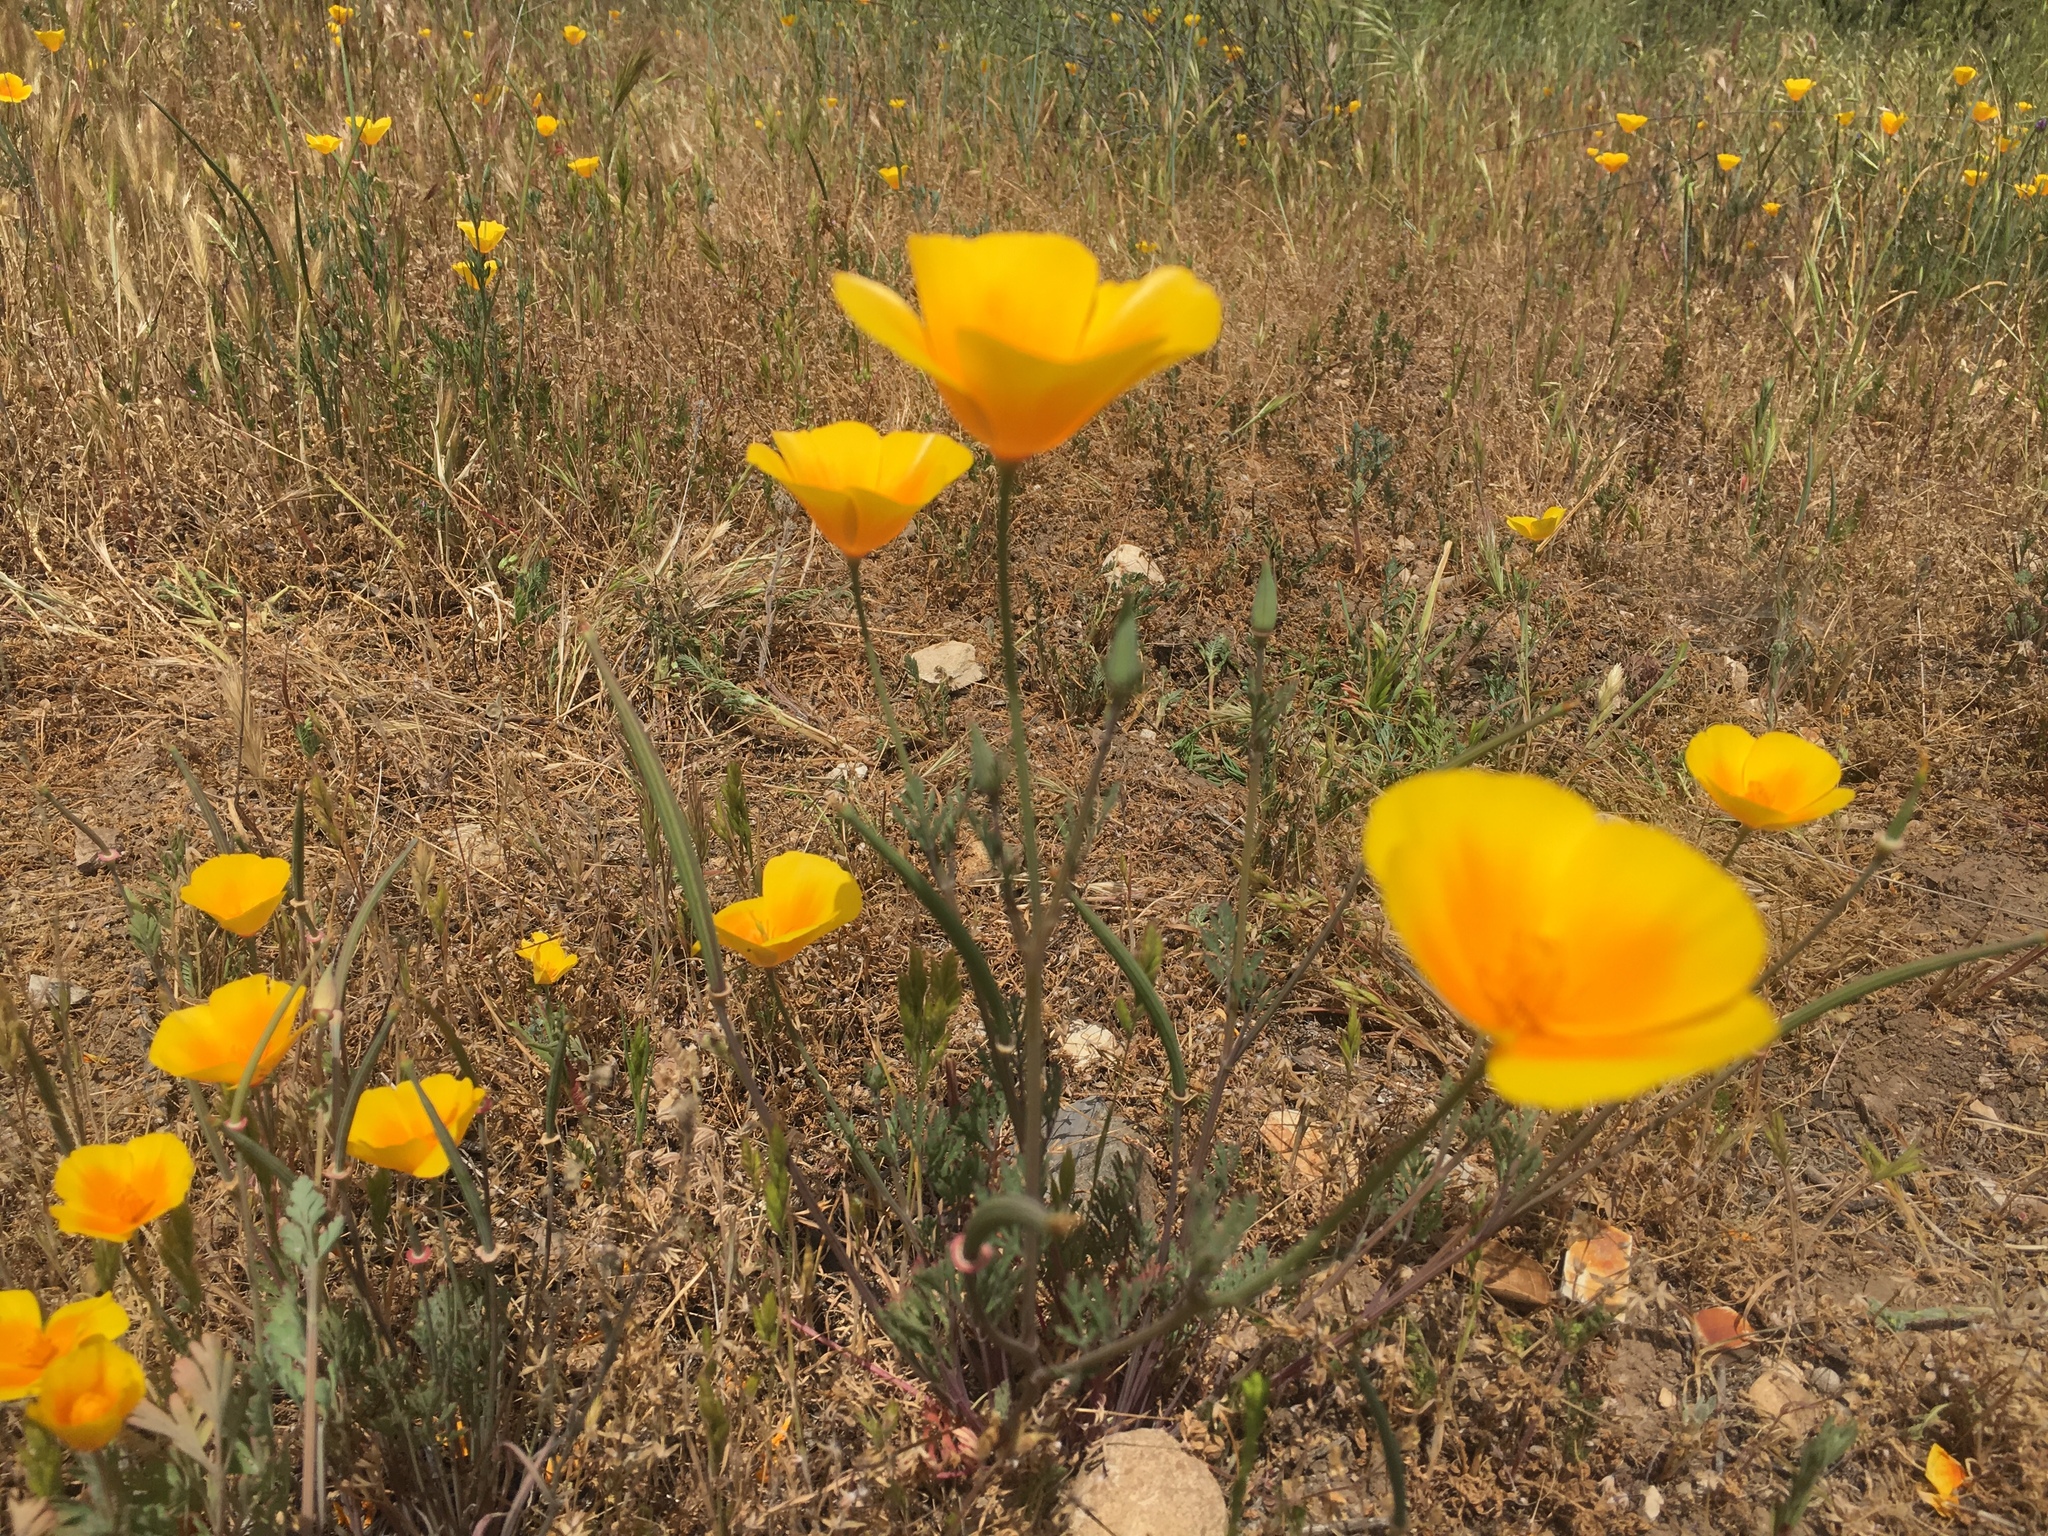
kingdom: Plantae
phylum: Tracheophyta
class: Magnoliopsida
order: Ranunculales
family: Papaveraceae
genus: Eschscholzia
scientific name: Eschscholzia californica
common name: California poppy
